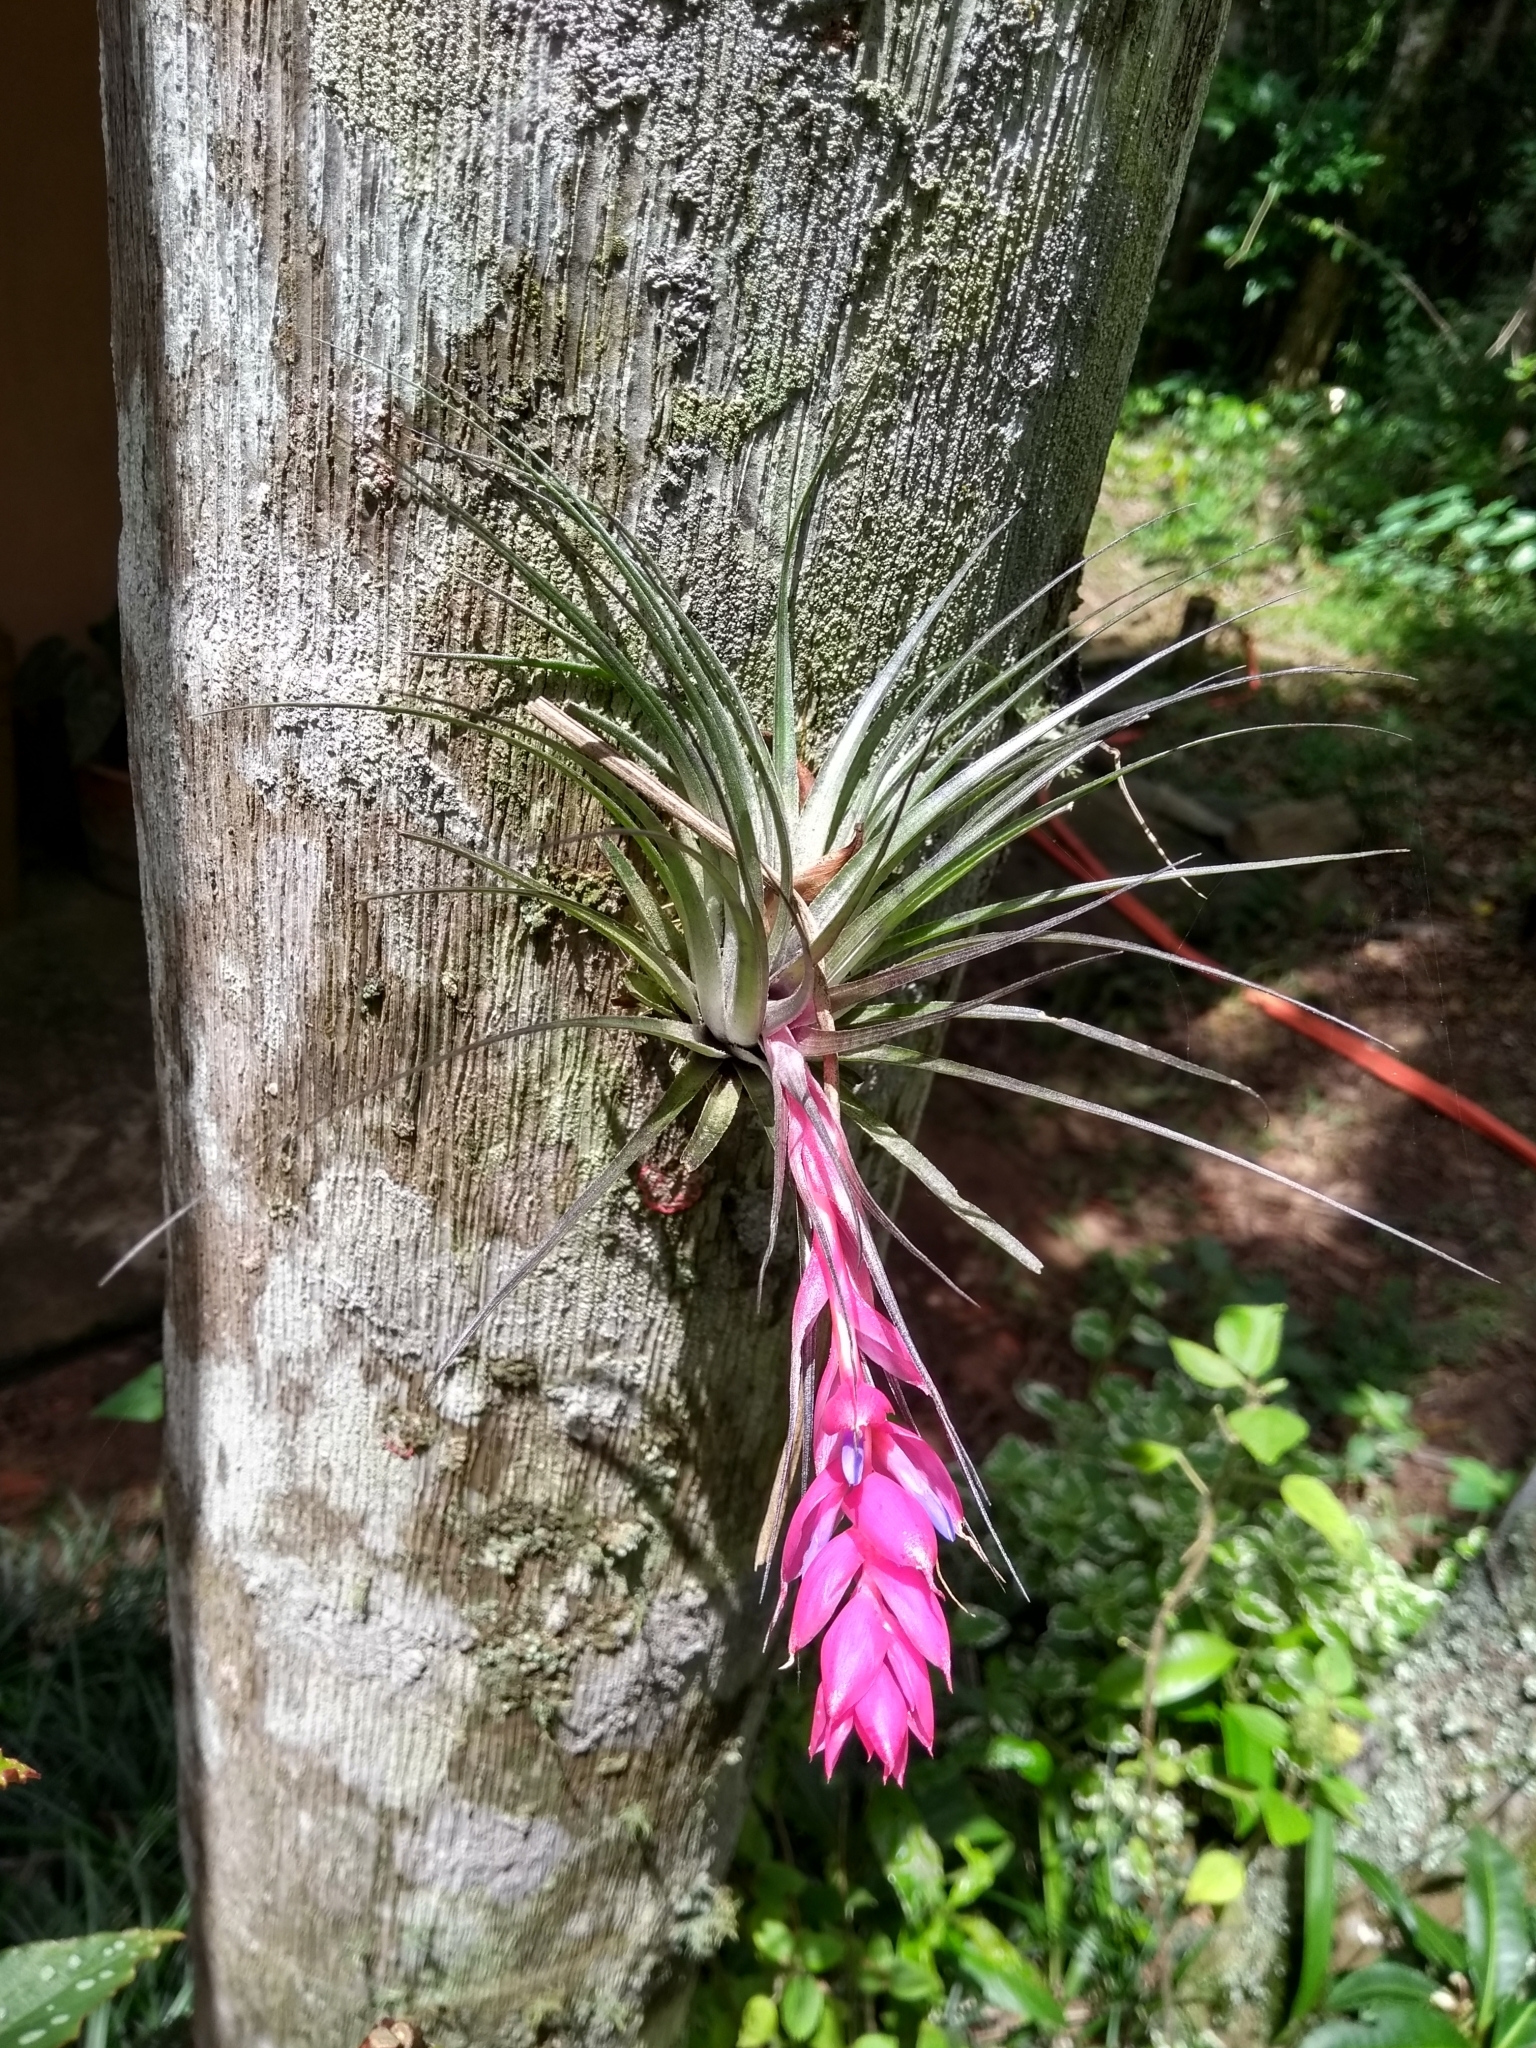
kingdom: Plantae
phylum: Tracheophyta
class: Liliopsida
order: Poales
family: Bromeliaceae
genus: Tillandsia
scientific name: Tillandsia stricta
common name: Airplant
